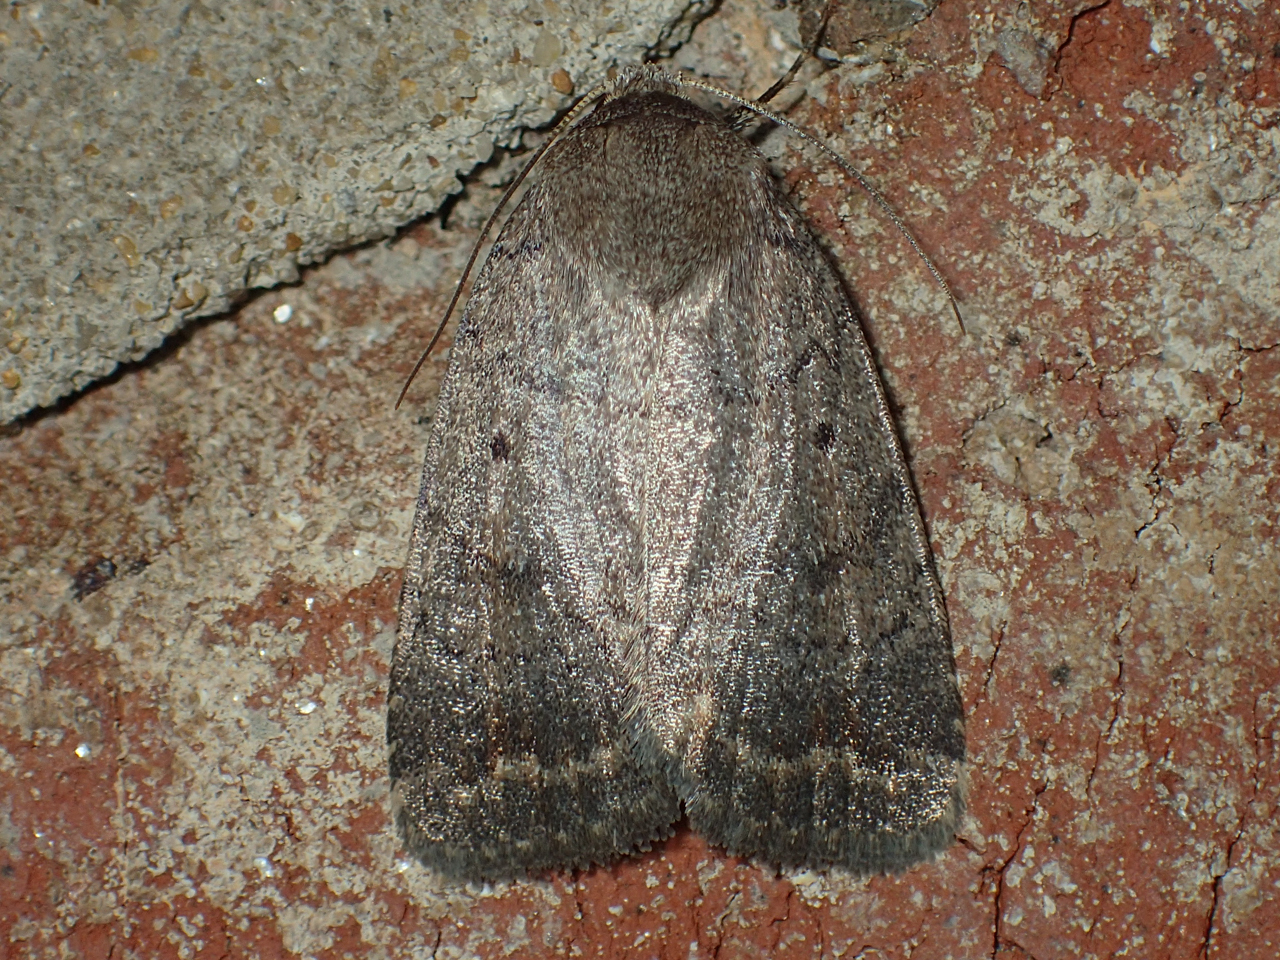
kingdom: Animalia
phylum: Arthropoda
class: Insecta
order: Lepidoptera
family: Noctuidae
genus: Athetis
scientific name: Athetis tarda
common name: Slowpoke moth
